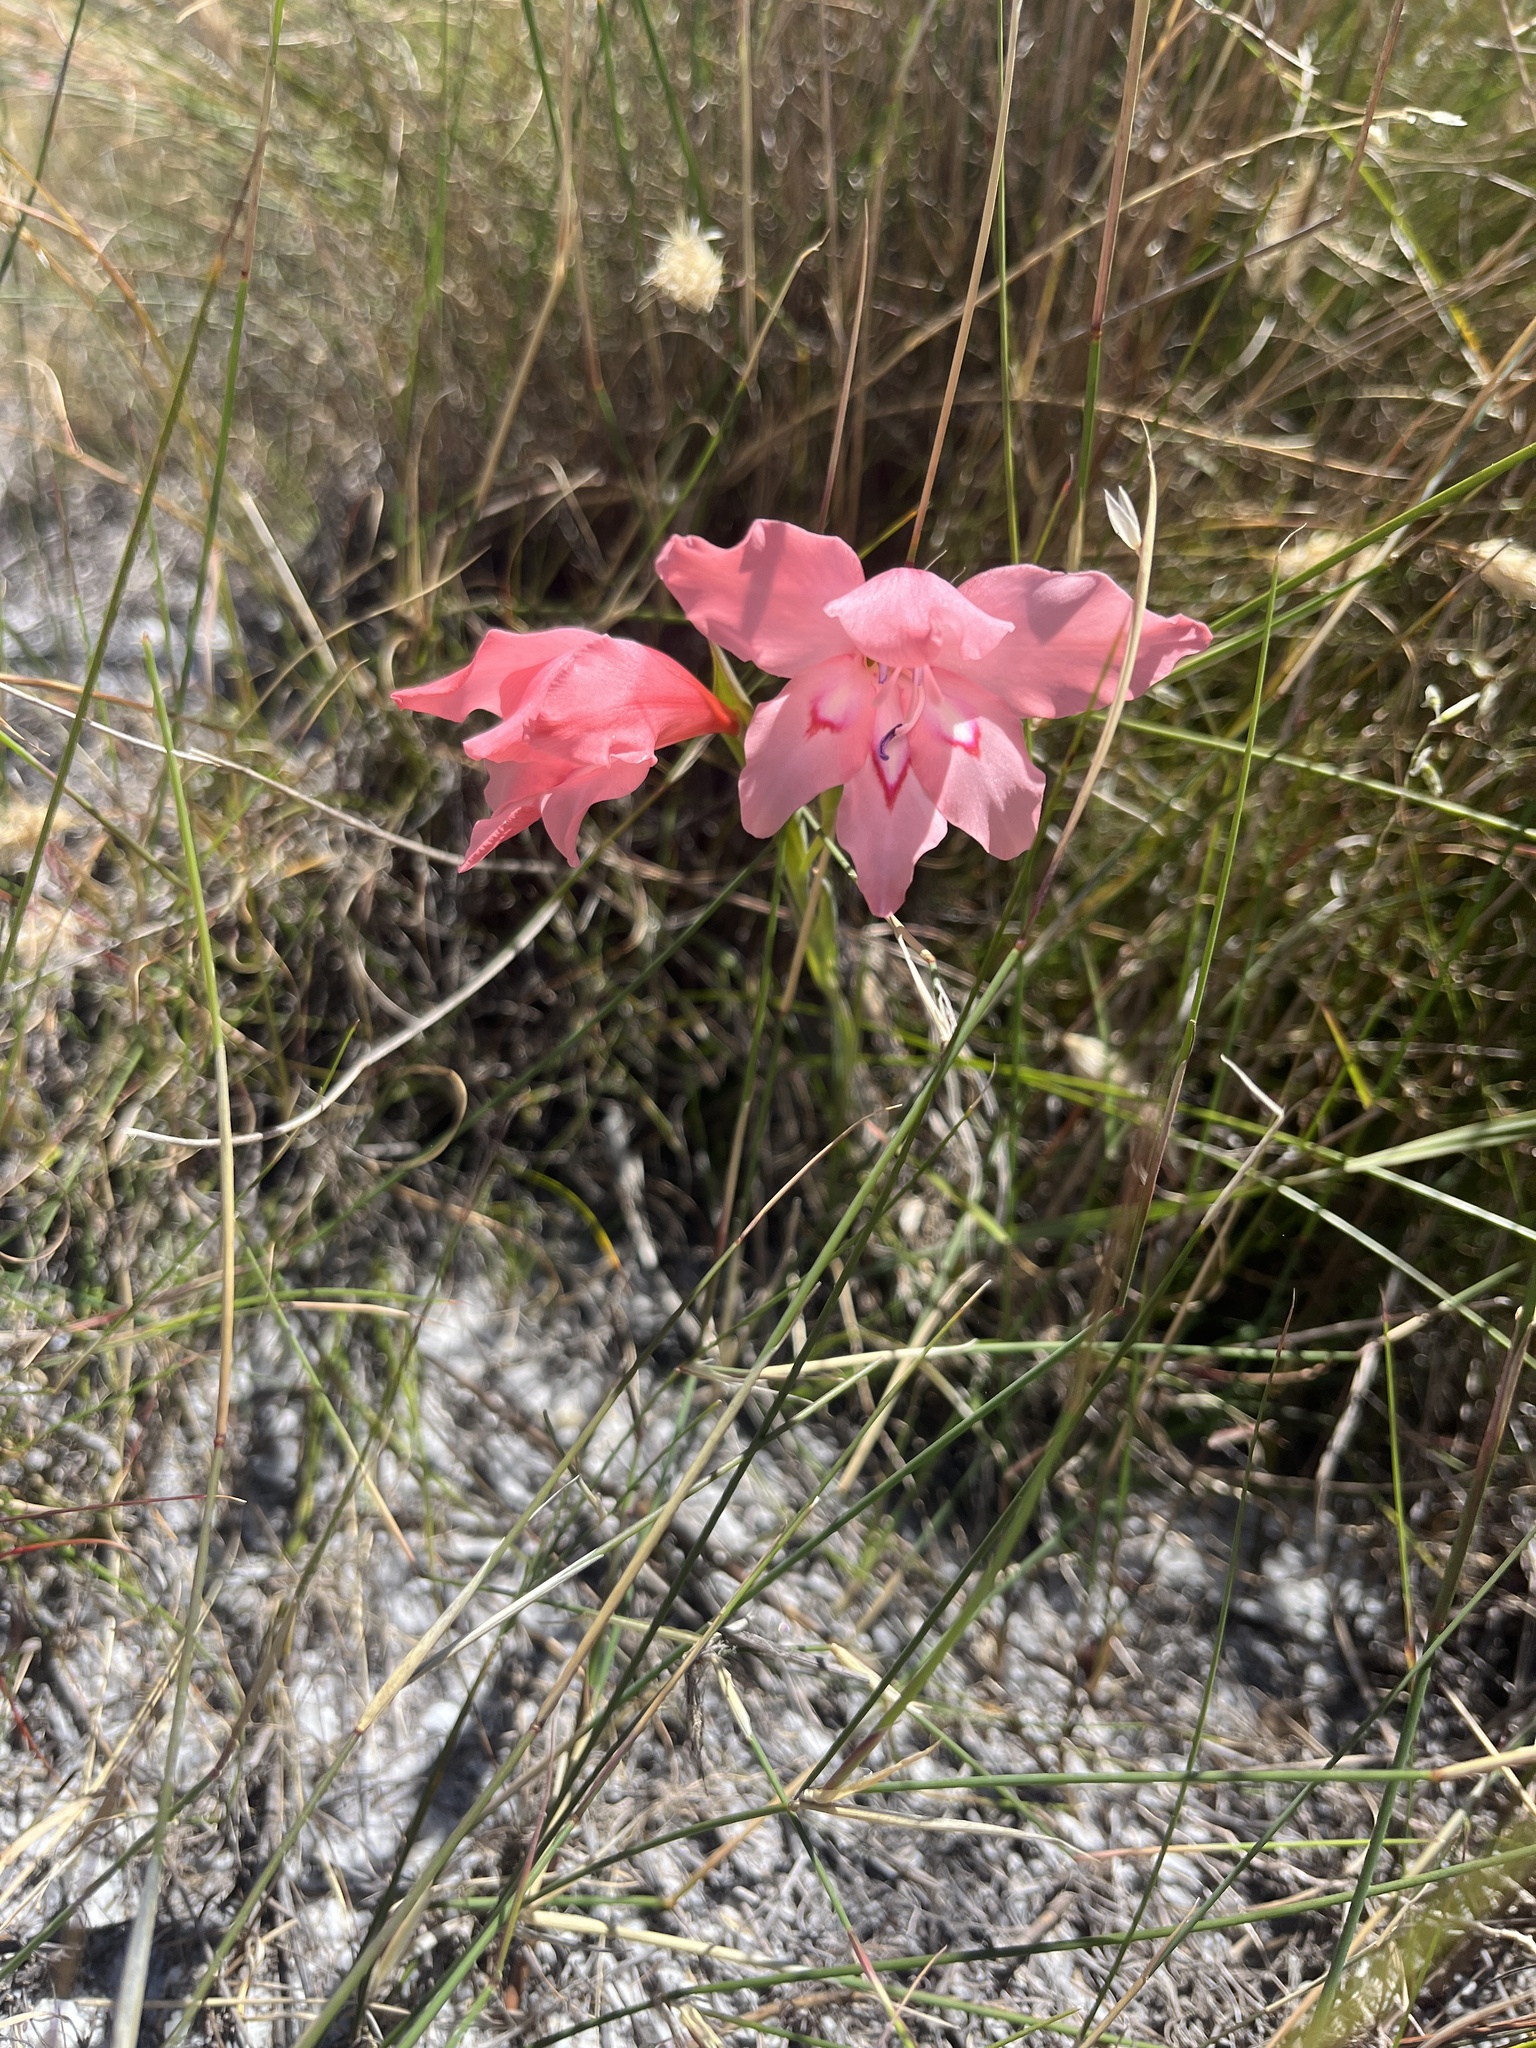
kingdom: Plantae
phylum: Tracheophyta
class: Liliopsida
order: Asparagales
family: Iridaceae
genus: Gladiolus
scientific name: Gladiolus carneus
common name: Painted-lady
